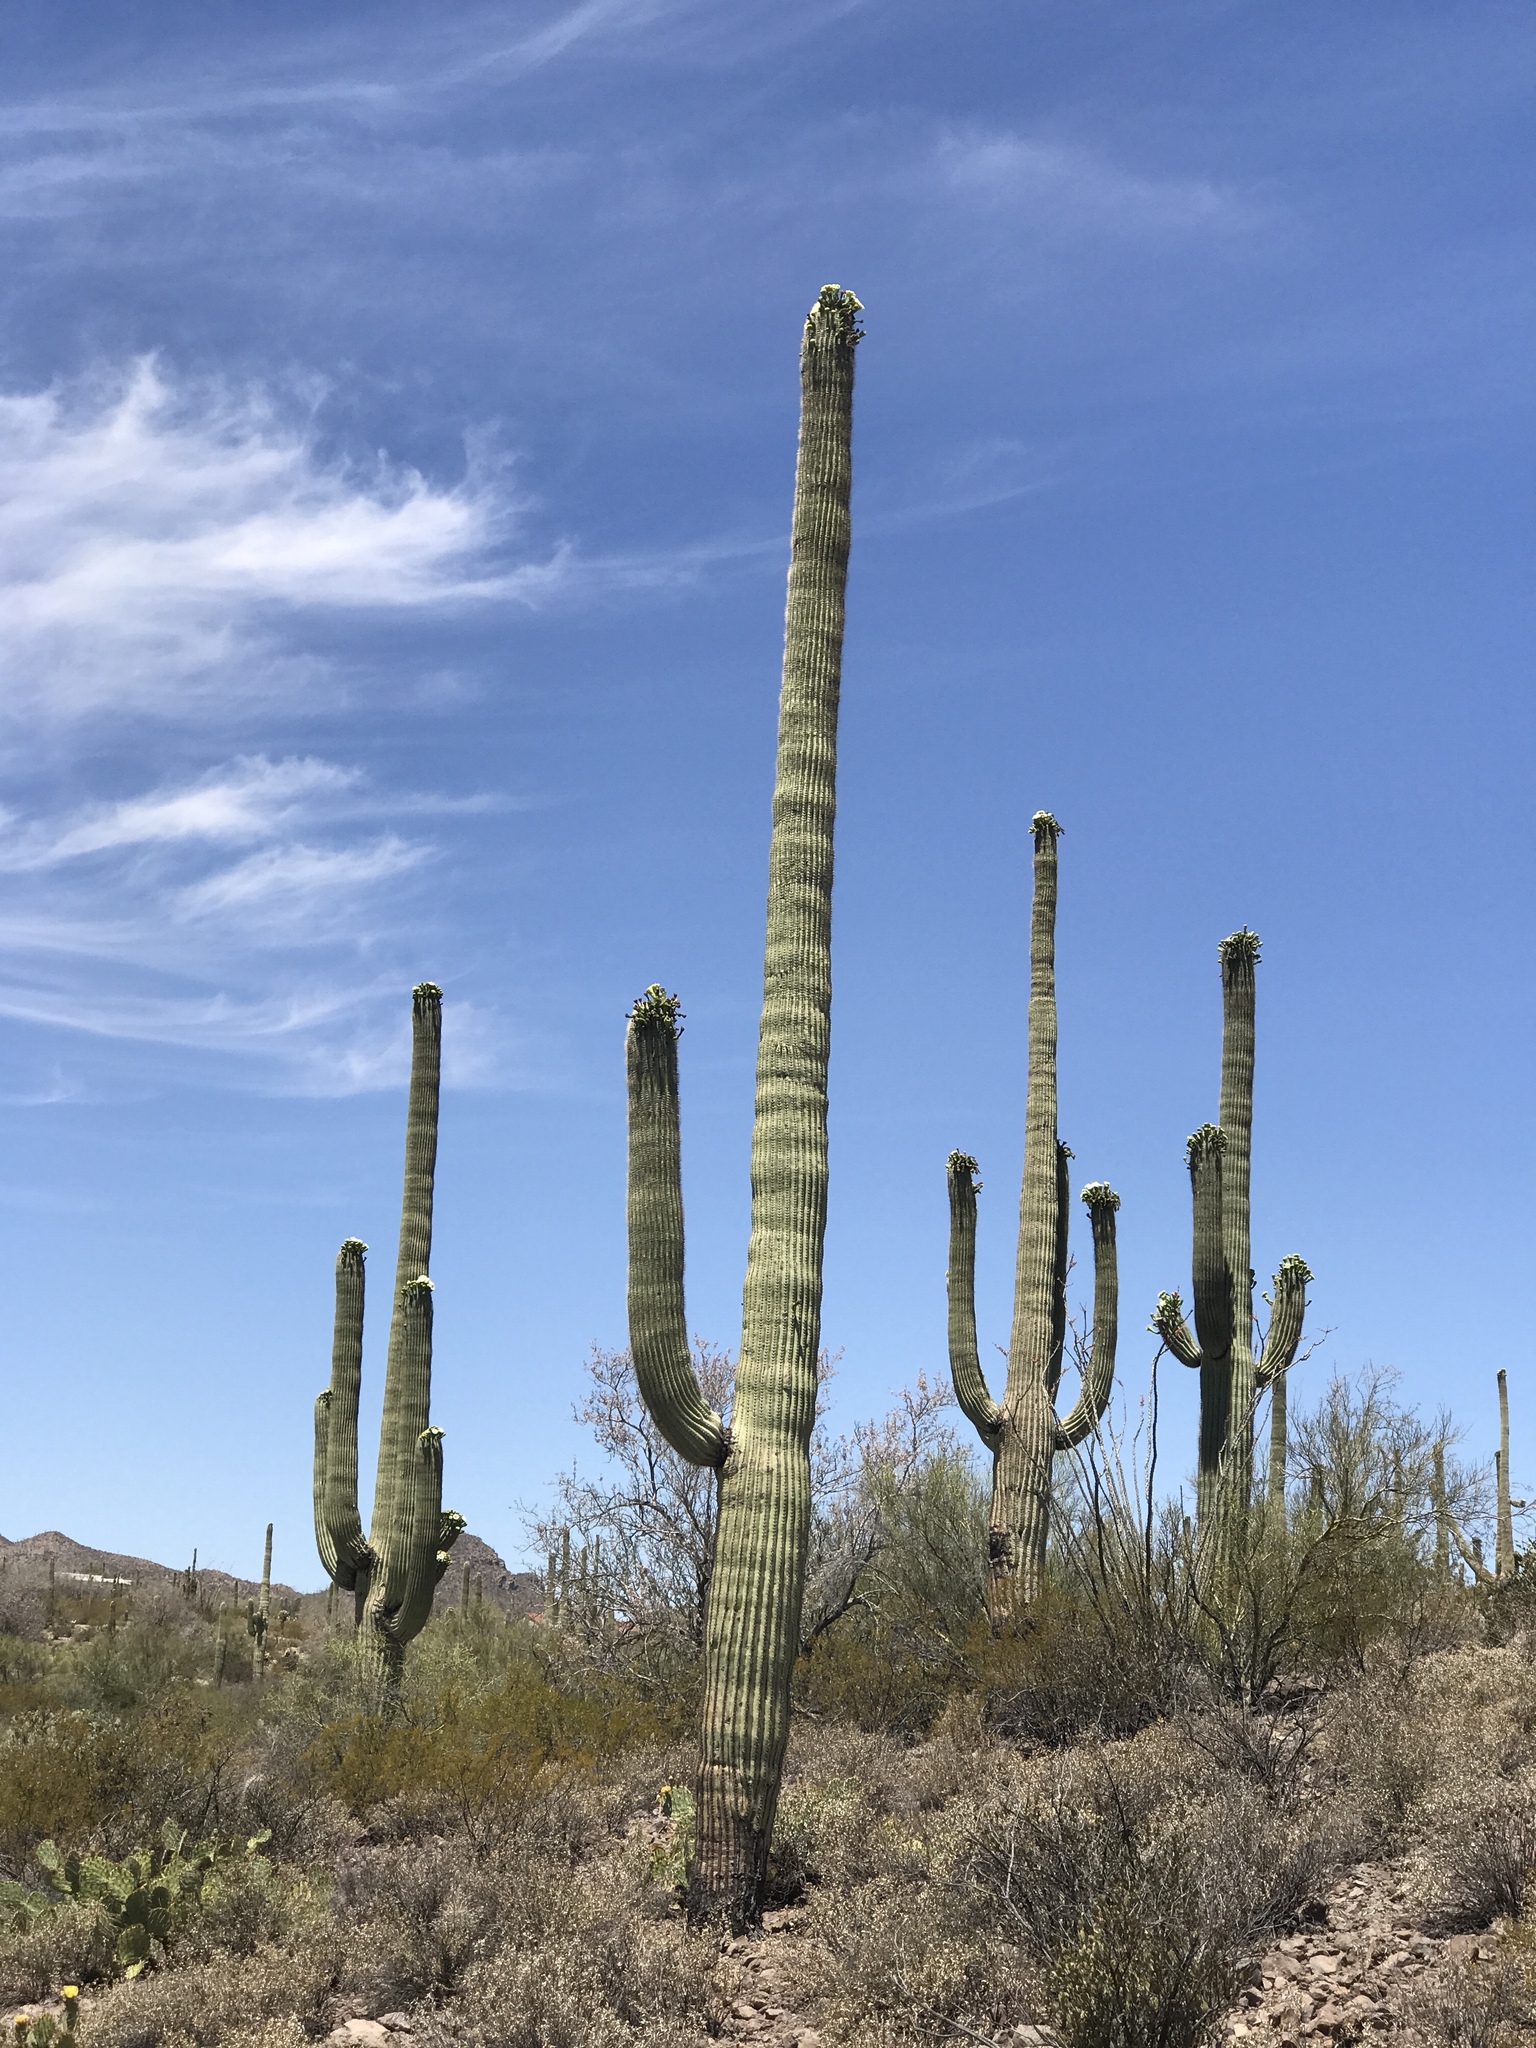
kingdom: Plantae
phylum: Tracheophyta
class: Magnoliopsida
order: Caryophyllales
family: Cactaceae
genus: Carnegiea
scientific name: Carnegiea gigantea
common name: Saguaro
